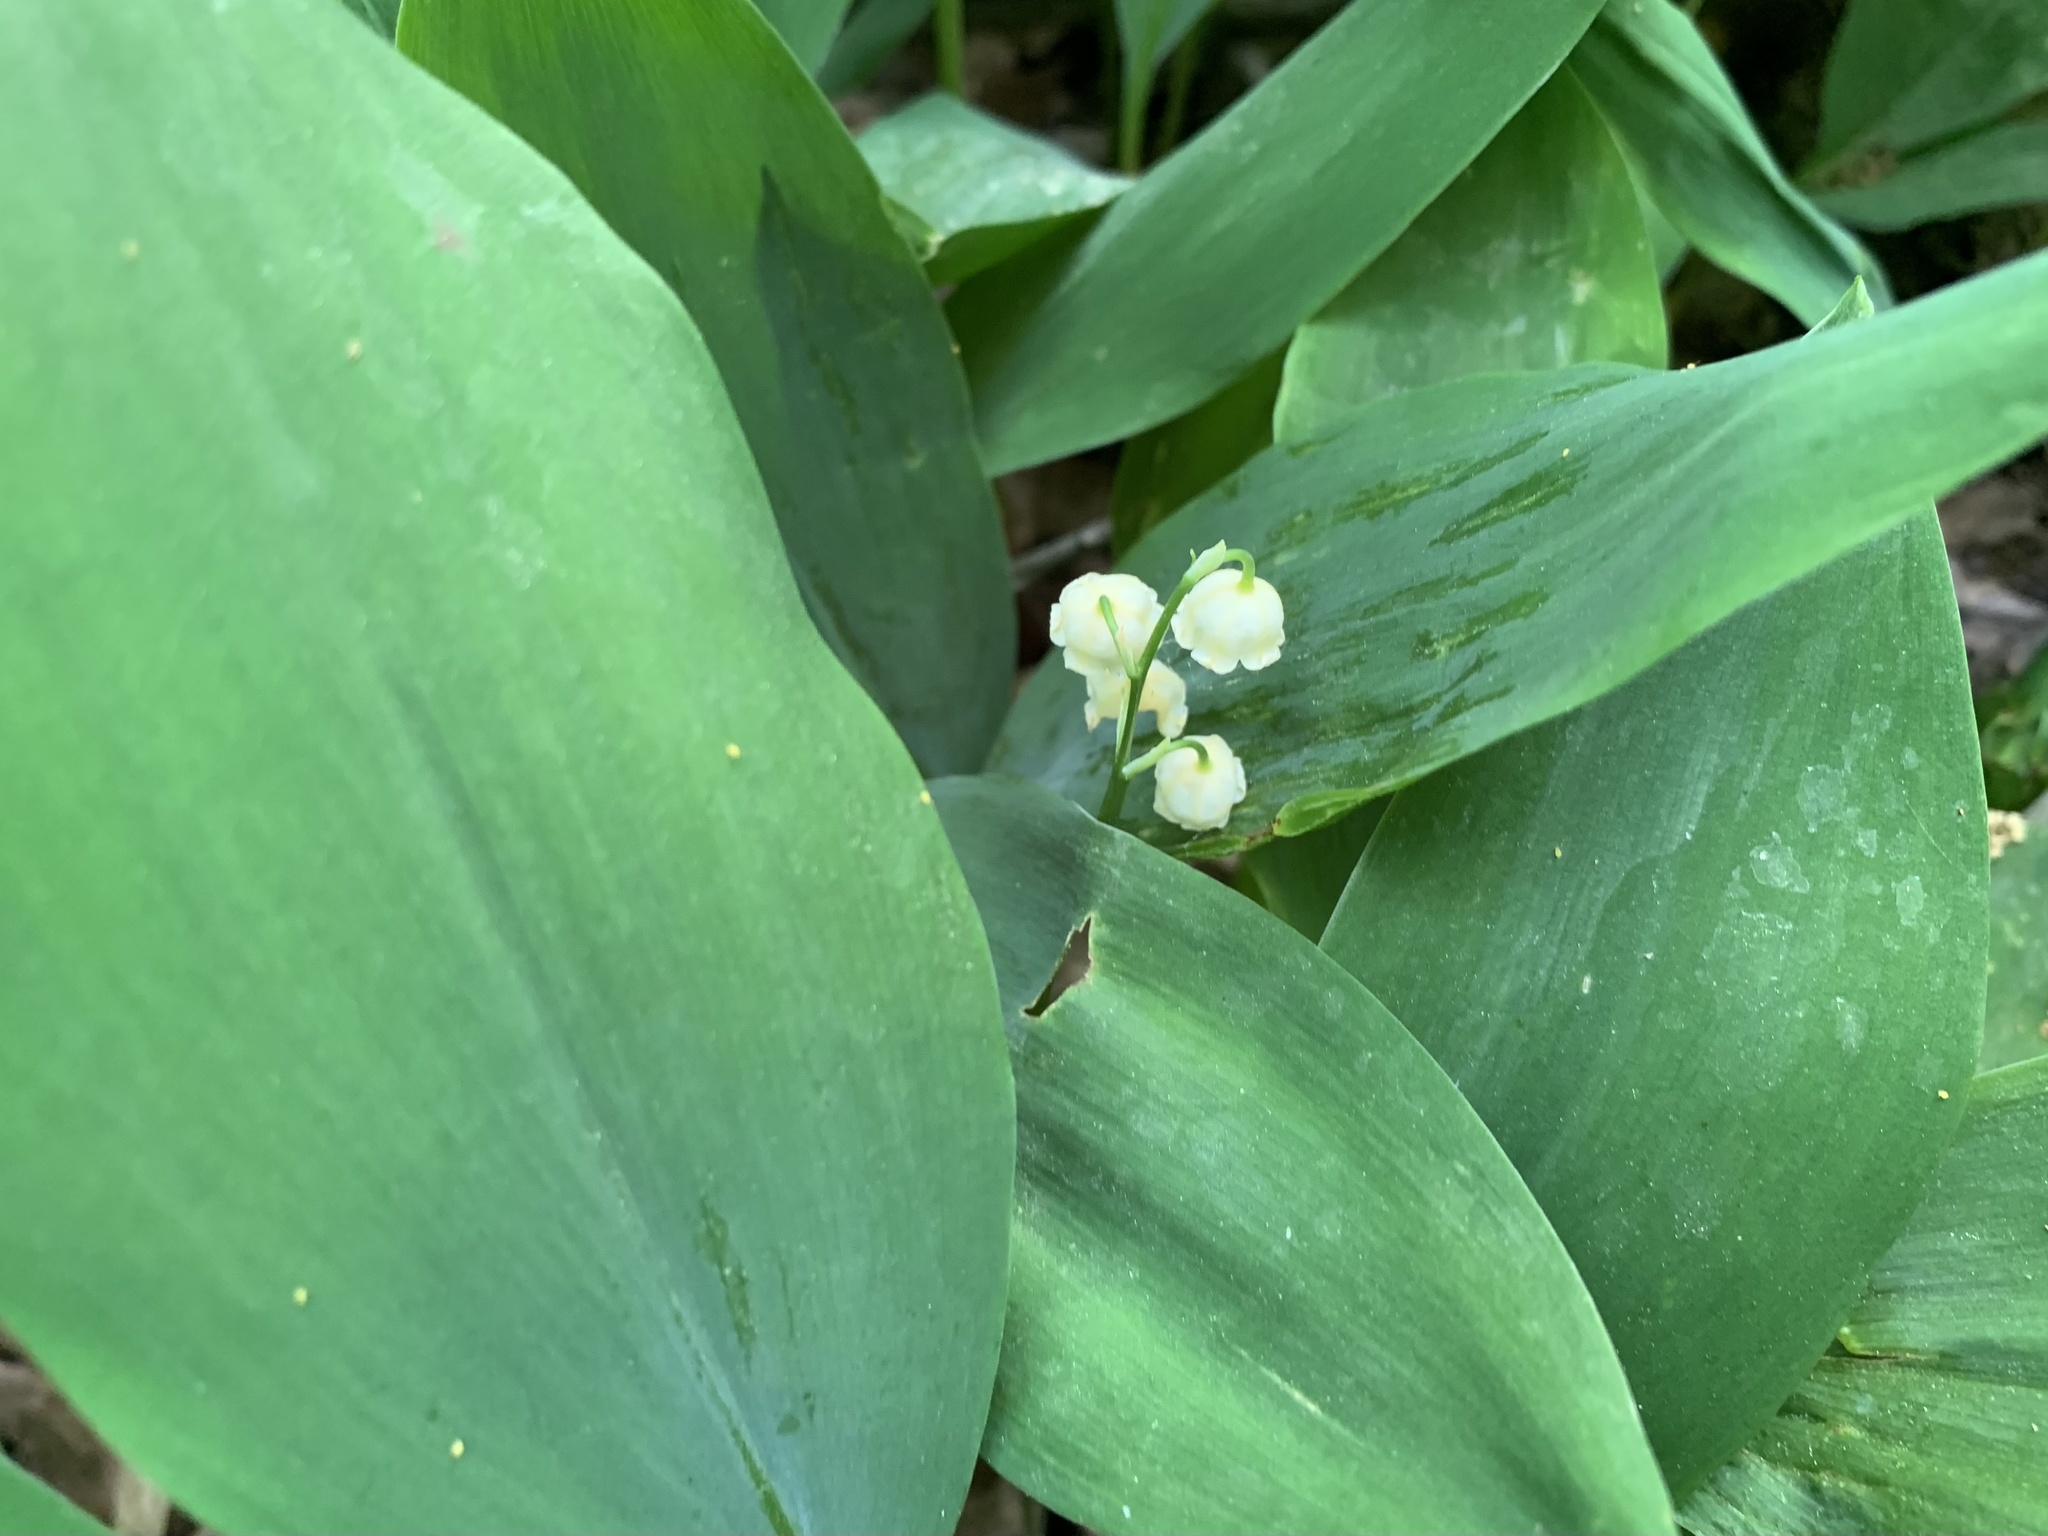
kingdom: Plantae
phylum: Tracheophyta
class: Liliopsida
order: Asparagales
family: Asparagaceae
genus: Convallaria
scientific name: Convallaria majalis
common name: Lily-of-the-valley
